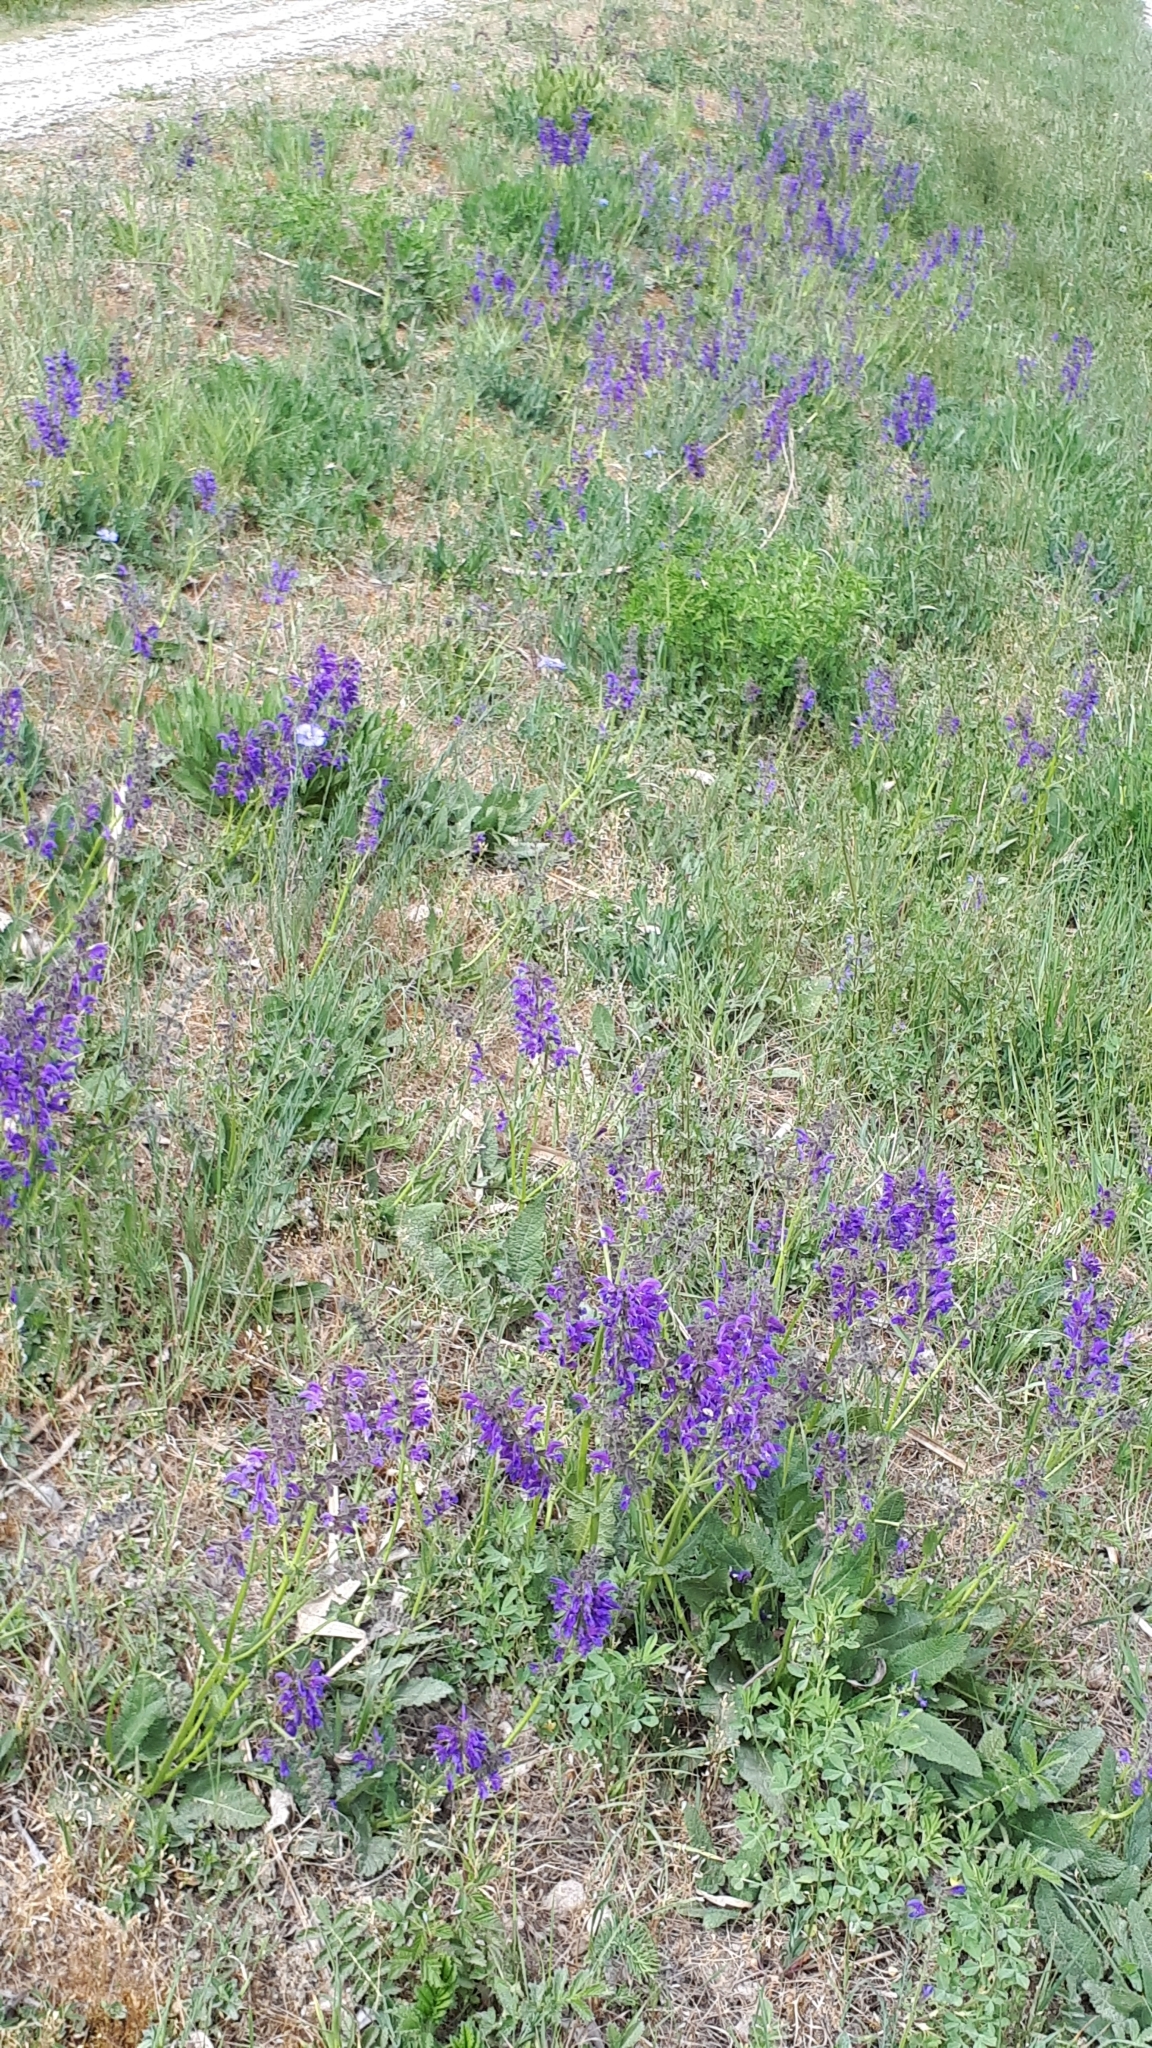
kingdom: Plantae
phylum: Tracheophyta
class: Magnoliopsida
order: Lamiales
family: Lamiaceae
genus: Salvia
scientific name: Salvia pratensis
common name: Meadow sage
